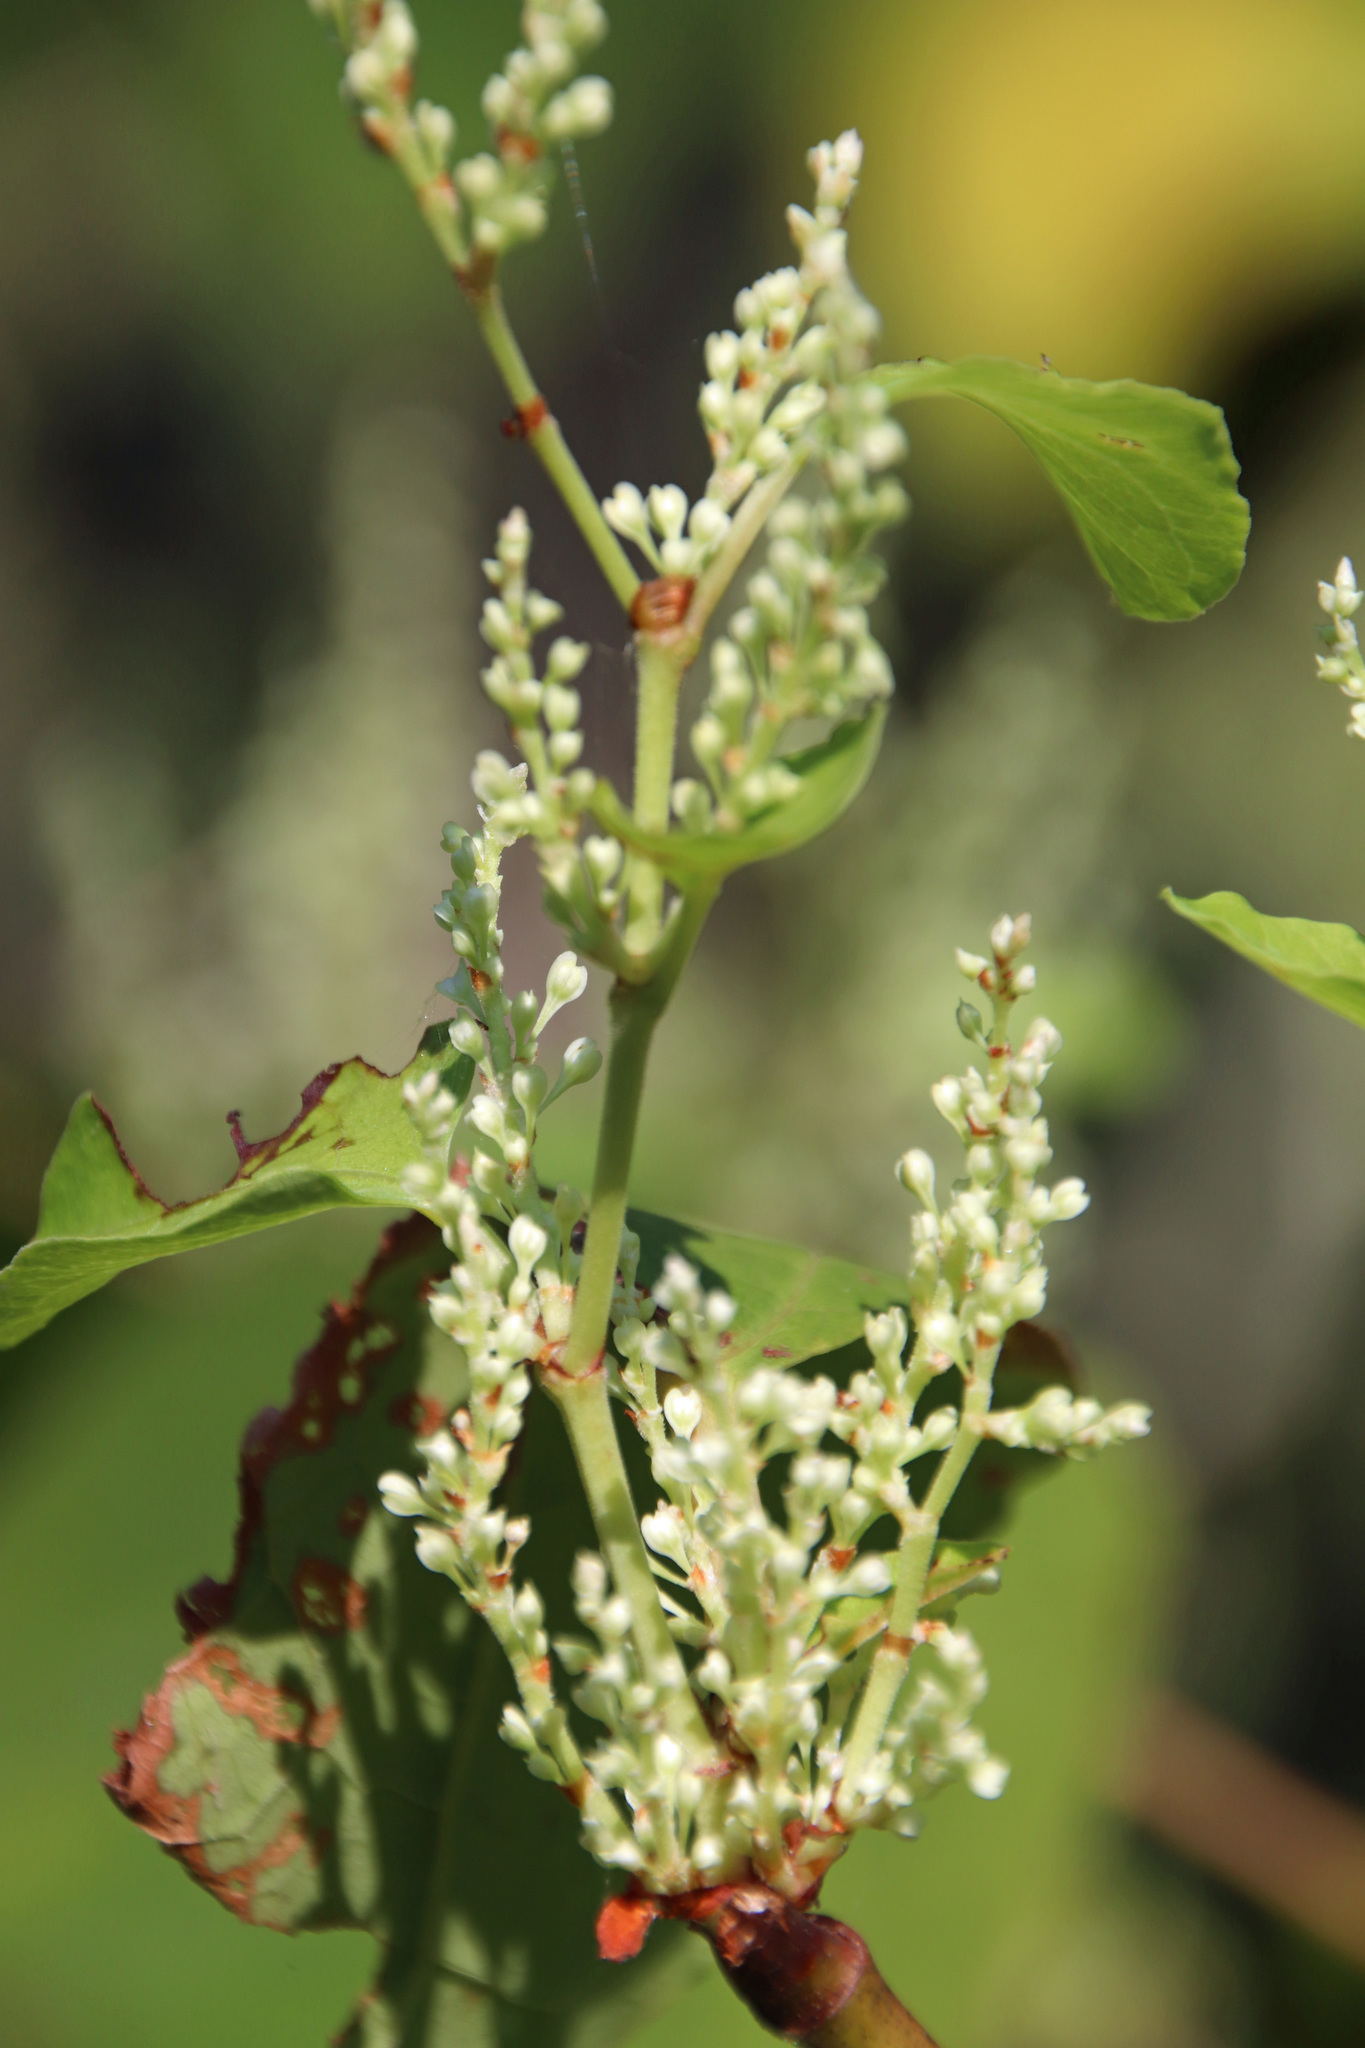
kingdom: Plantae
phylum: Tracheophyta
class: Magnoliopsida
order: Caryophyllales
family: Polygonaceae
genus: Reynoutria
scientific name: Reynoutria japonica
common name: Japanese knotweed
